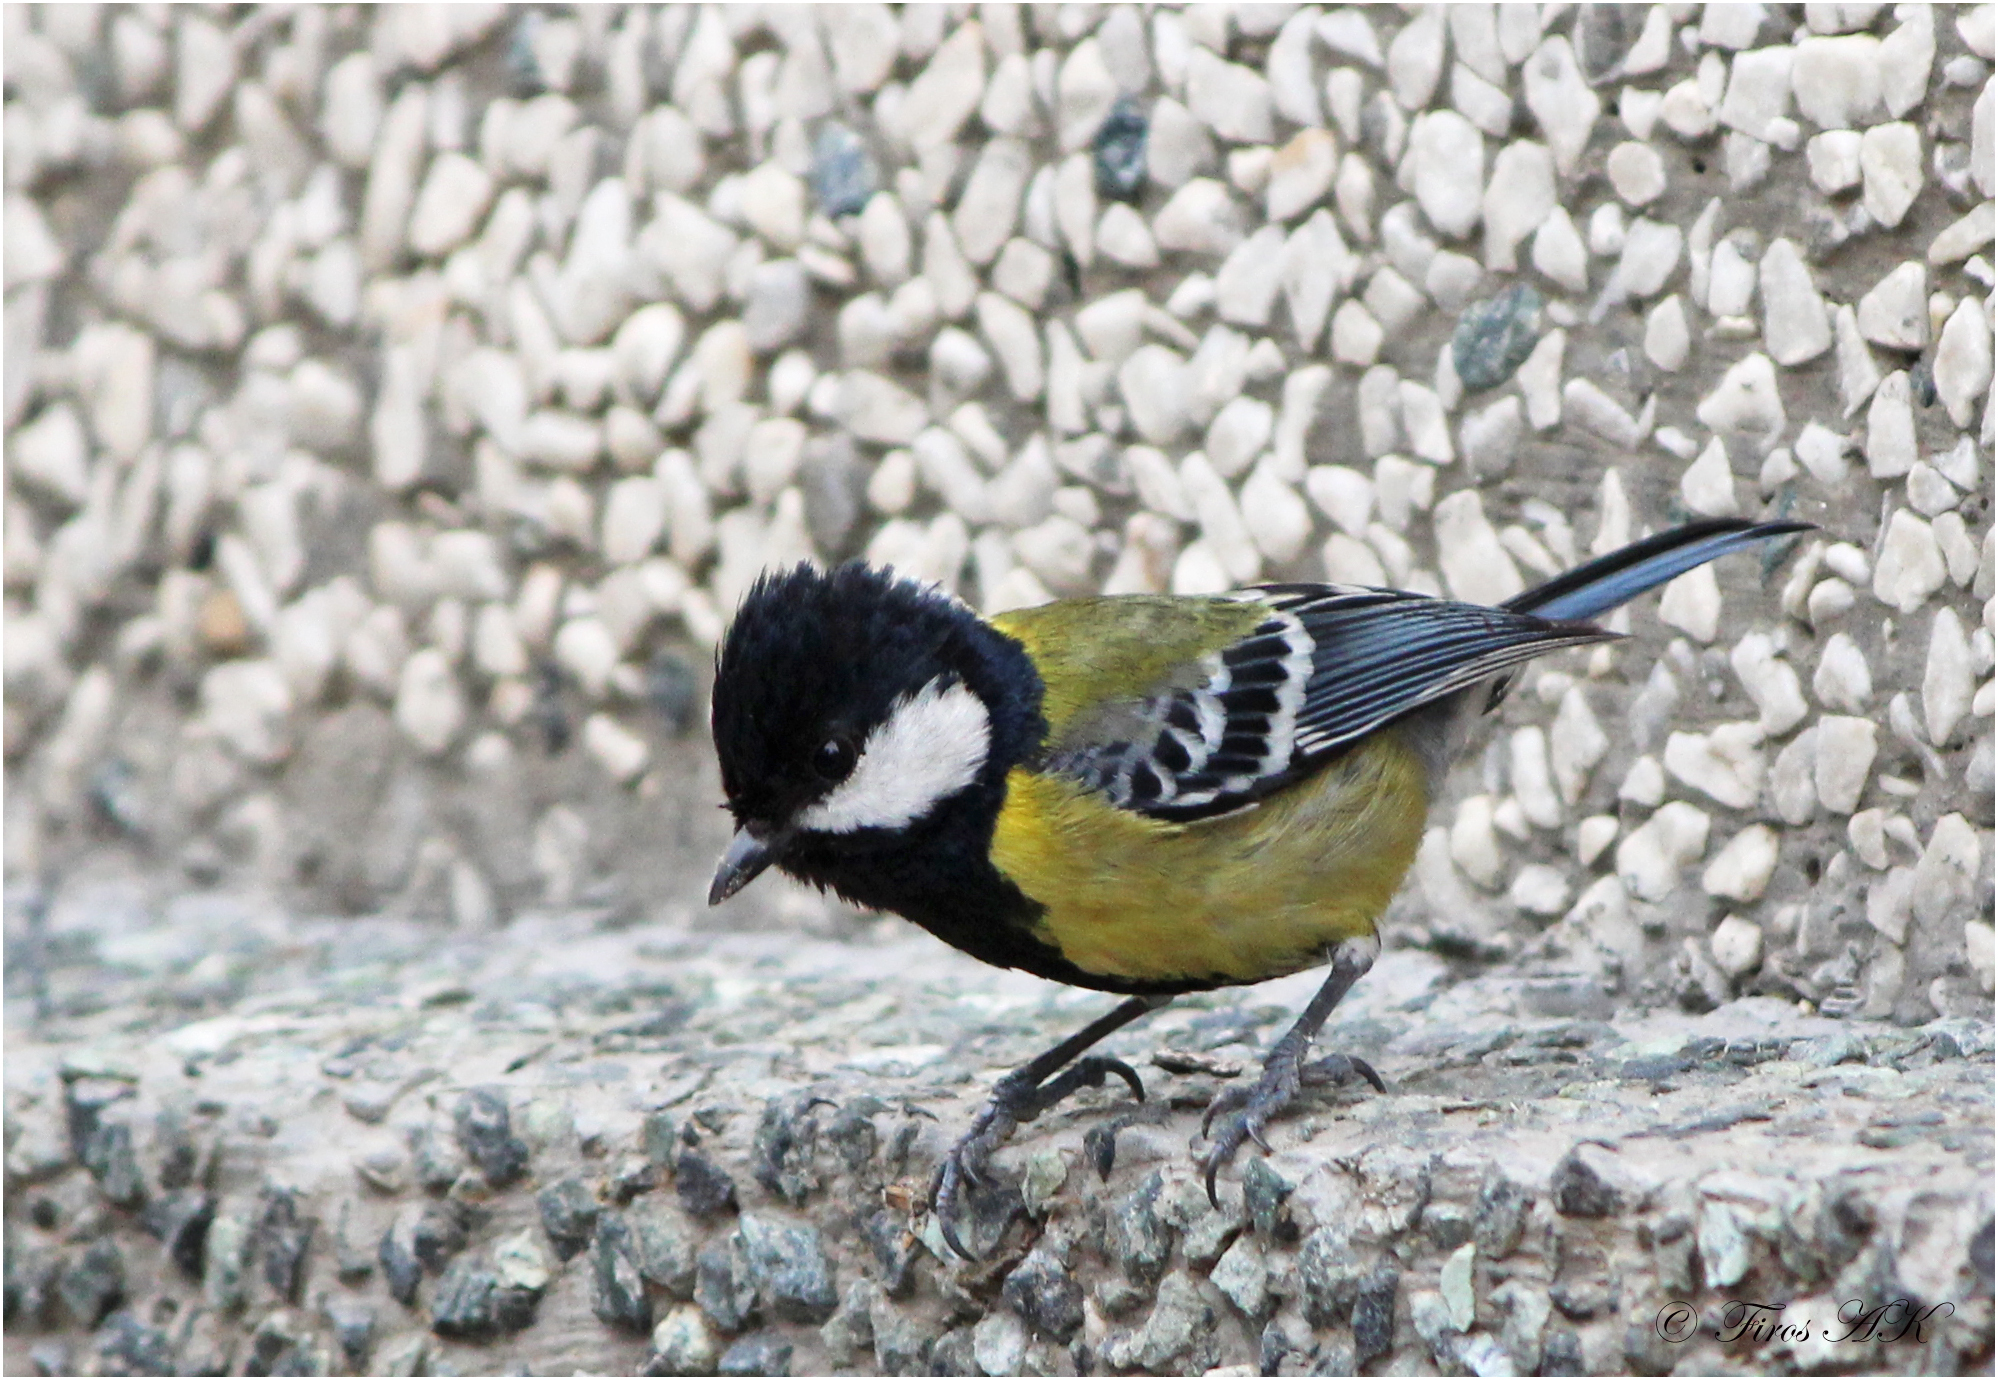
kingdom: Animalia
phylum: Chordata
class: Aves
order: Passeriformes
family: Paridae
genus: Parus
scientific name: Parus monticolus
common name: Green-backed tit
